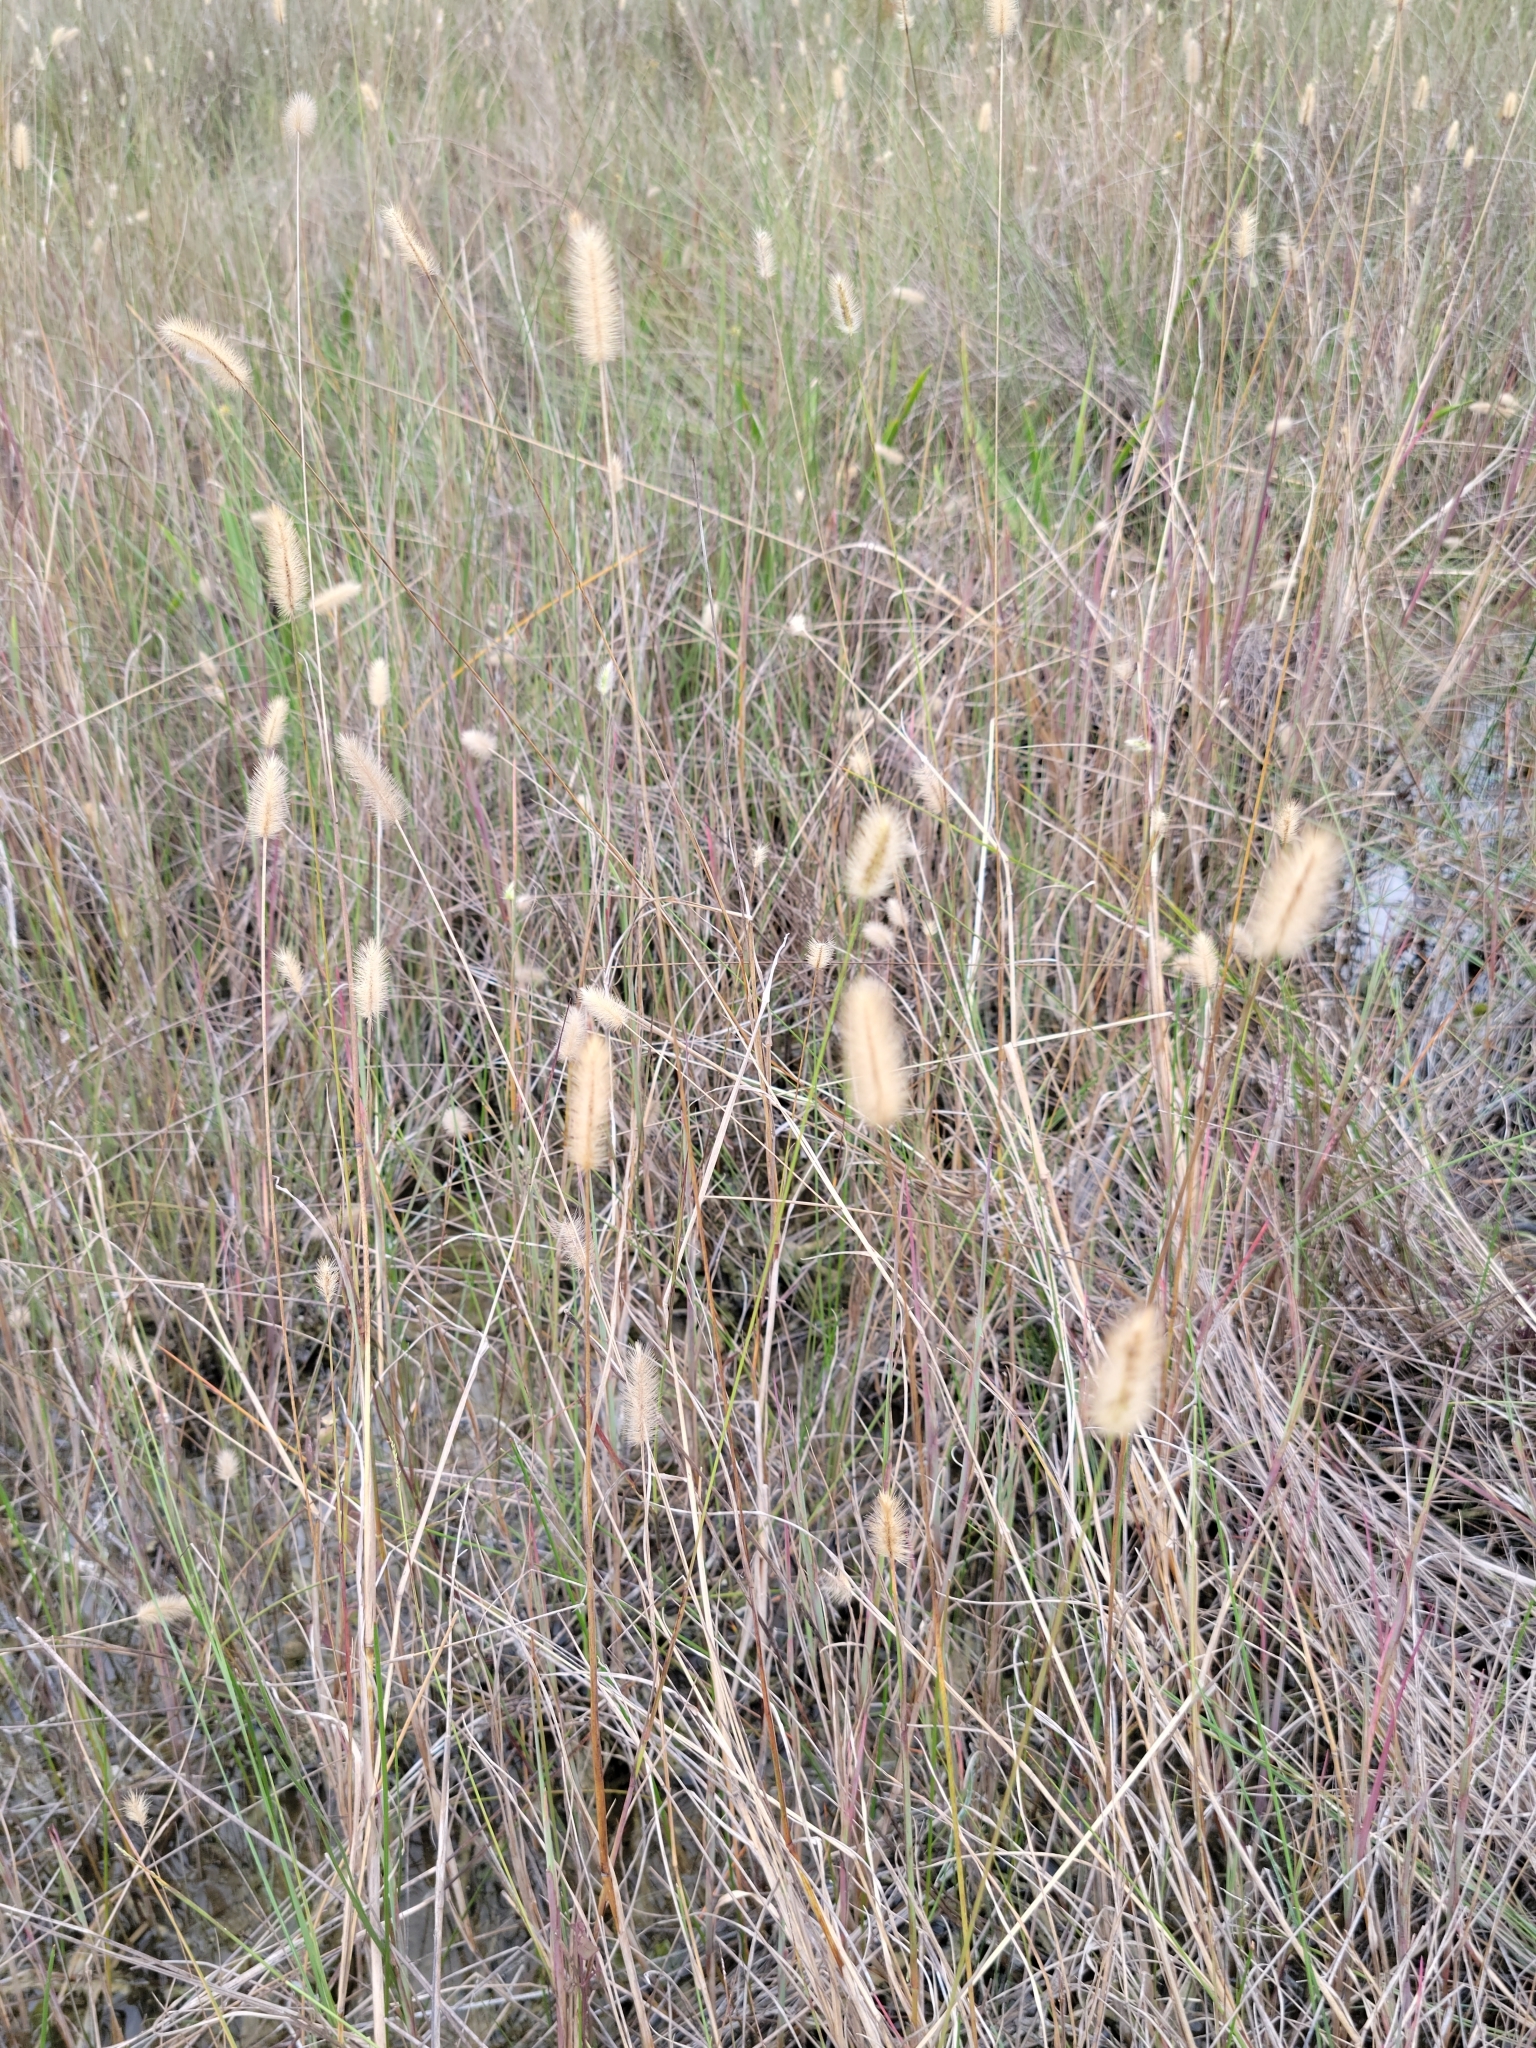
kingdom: Plantae
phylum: Tracheophyta
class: Liliopsida
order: Poales
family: Poaceae
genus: Setaria
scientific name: Setaria parviflora
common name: Knotroot bristle-grass
